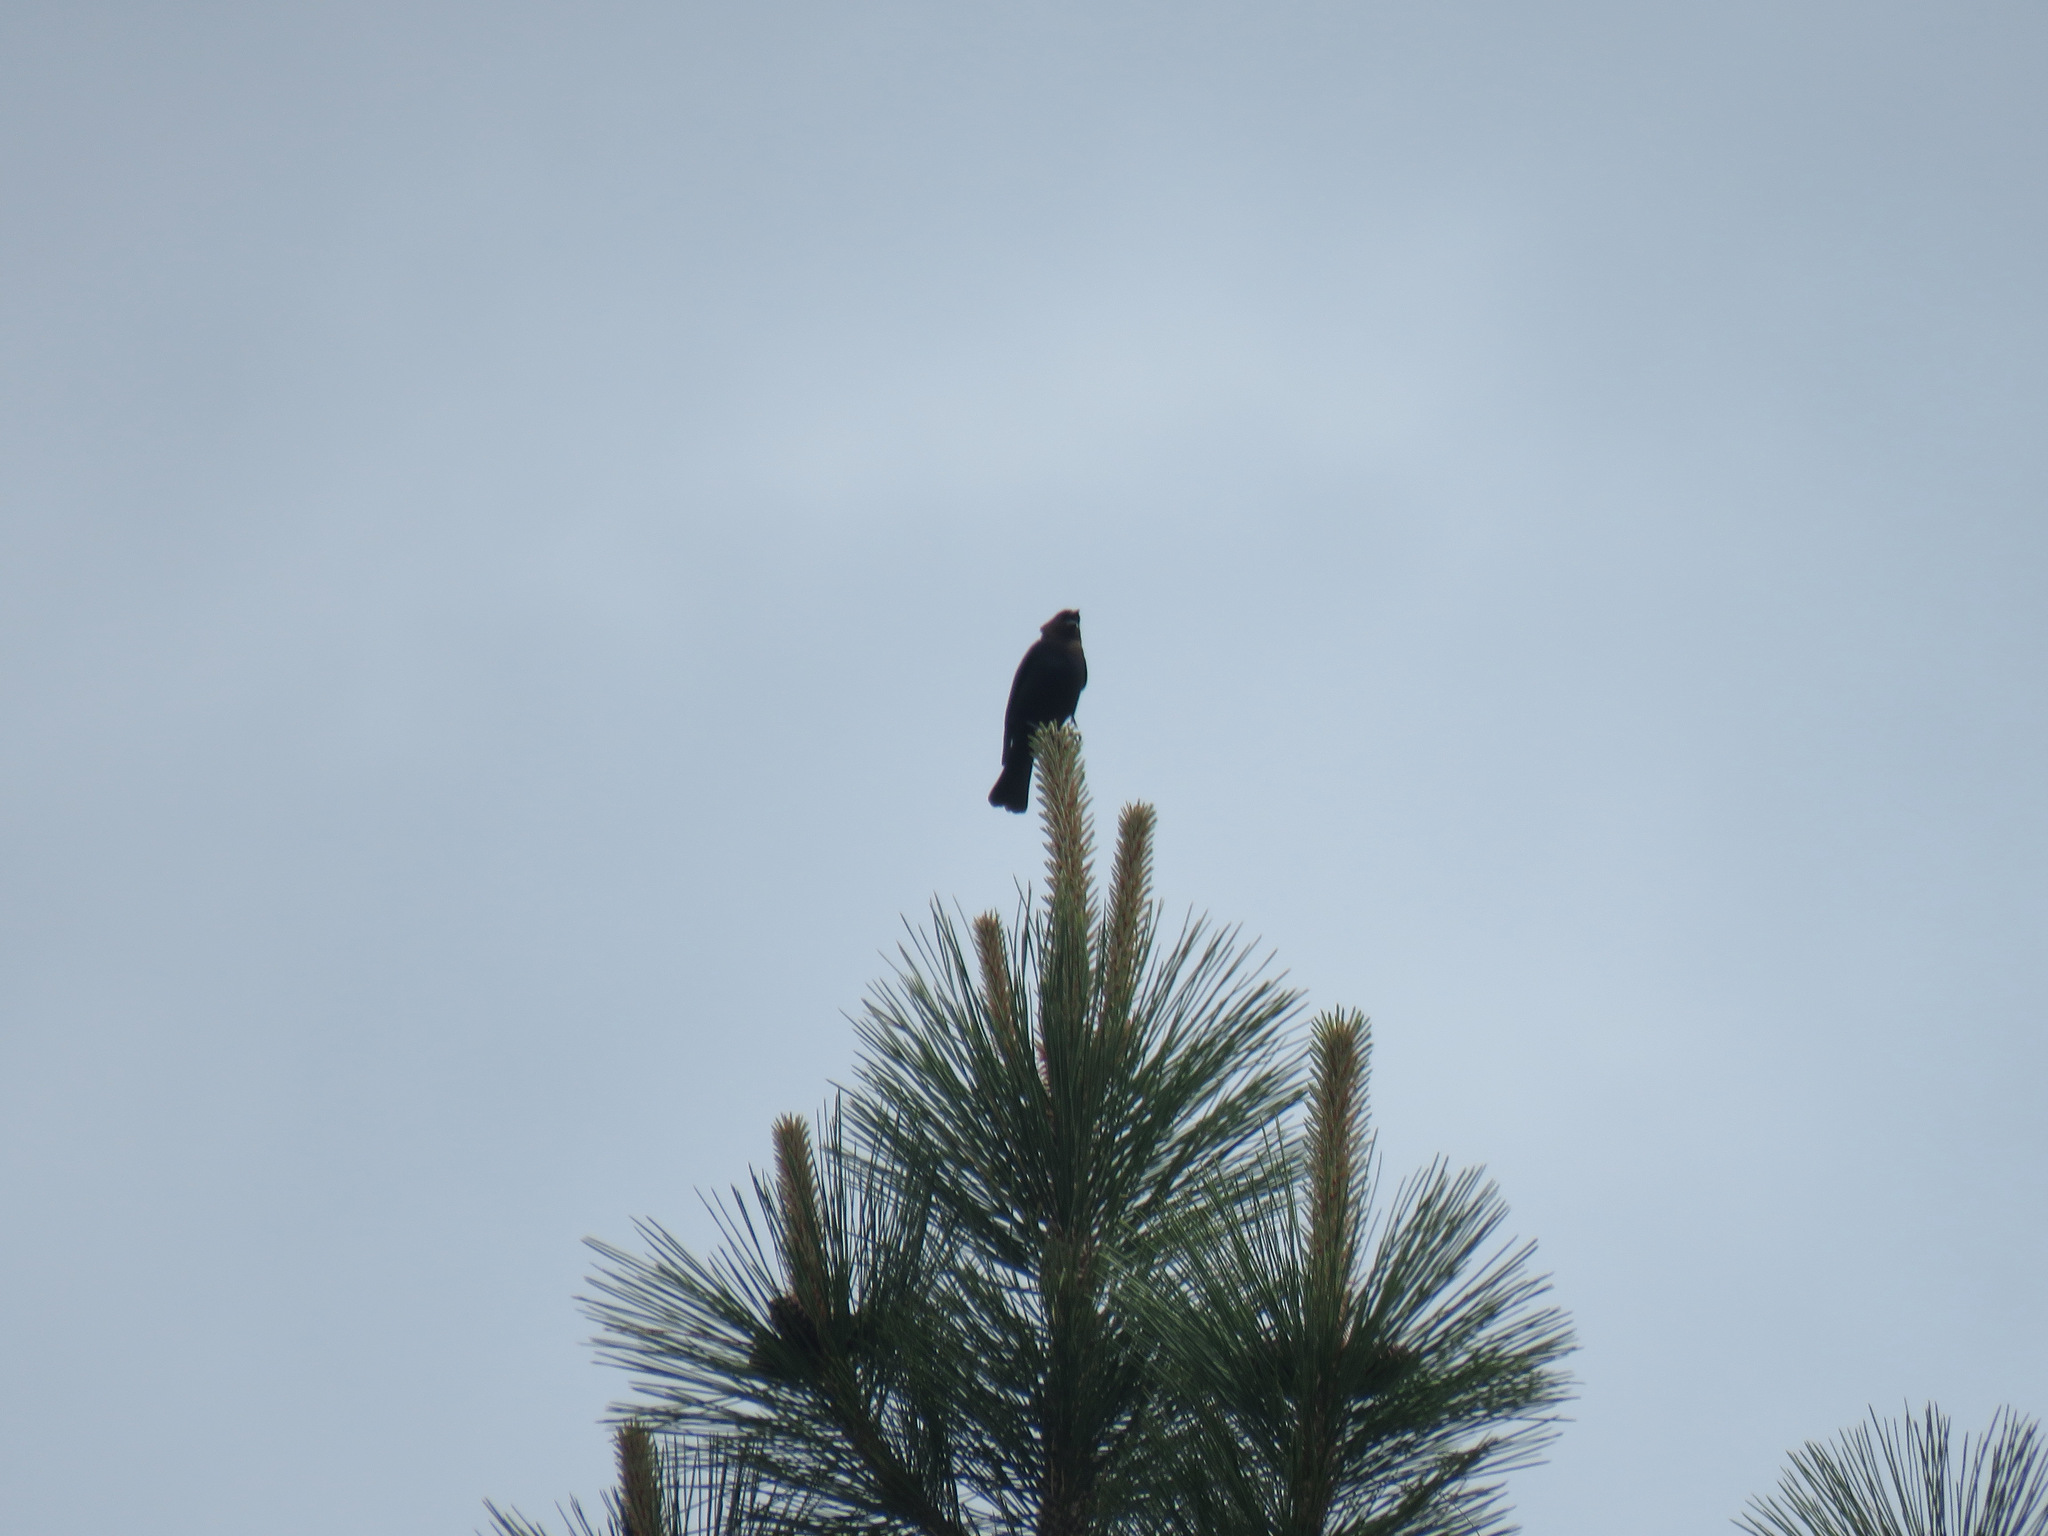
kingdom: Animalia
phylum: Chordata
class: Aves
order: Passeriformes
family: Icteridae
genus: Molothrus
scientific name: Molothrus ater
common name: Brown-headed cowbird
